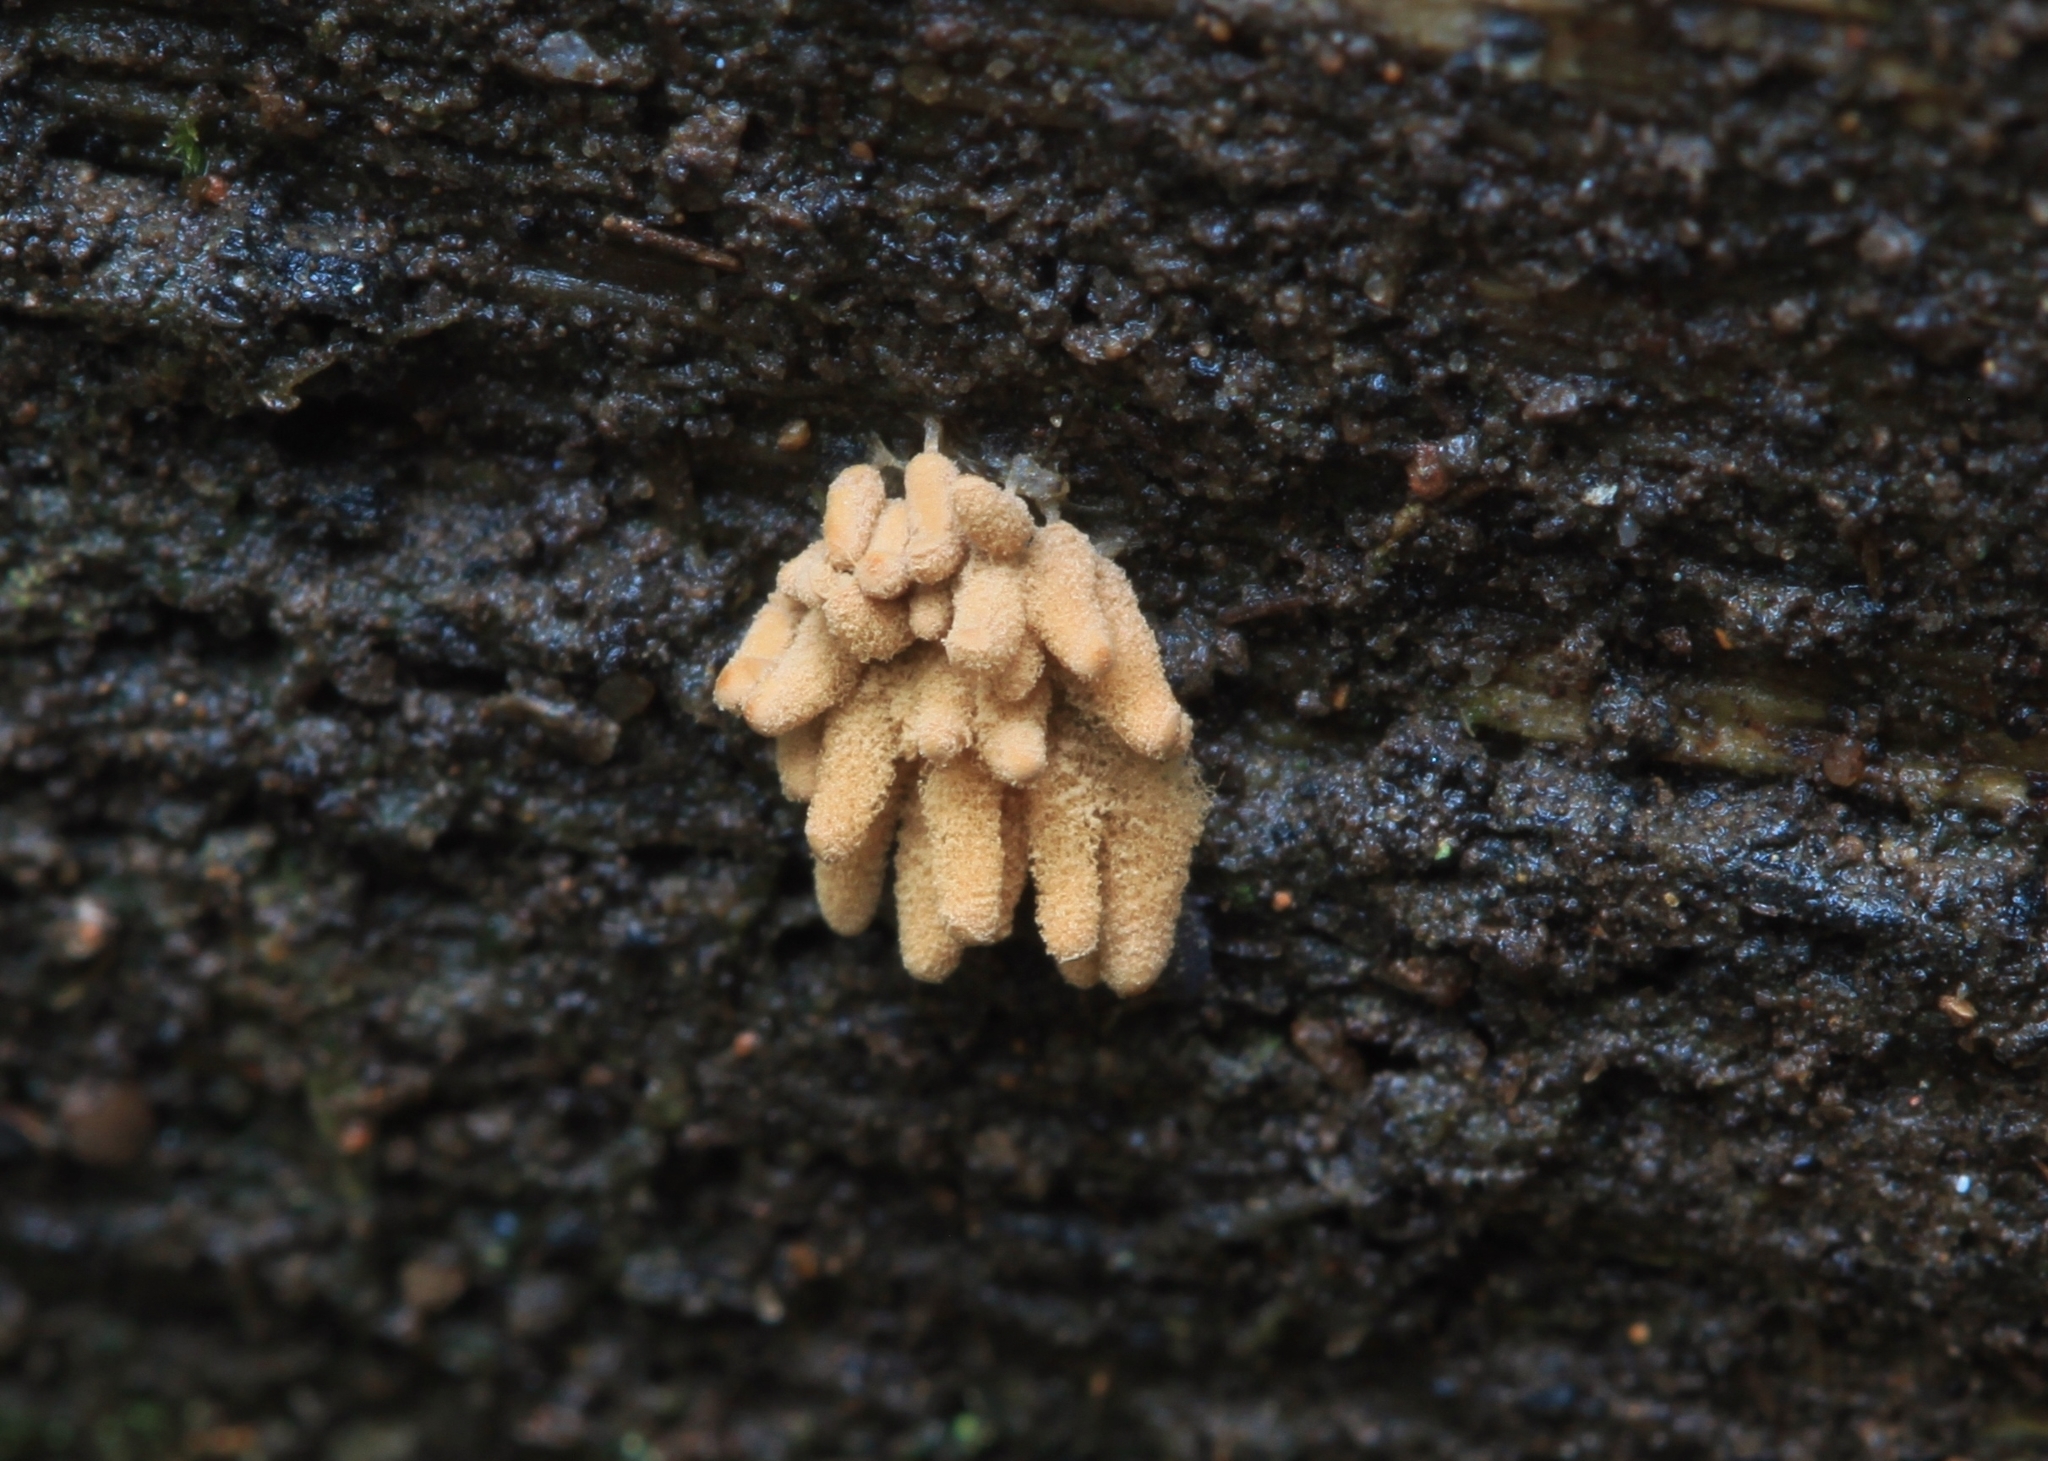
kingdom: Protozoa
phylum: Mycetozoa
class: Myxomycetes
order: Trichiales
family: Arcyriaceae
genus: Arcyria
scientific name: Arcyria obvelata
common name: Yellow carnival candy slime
